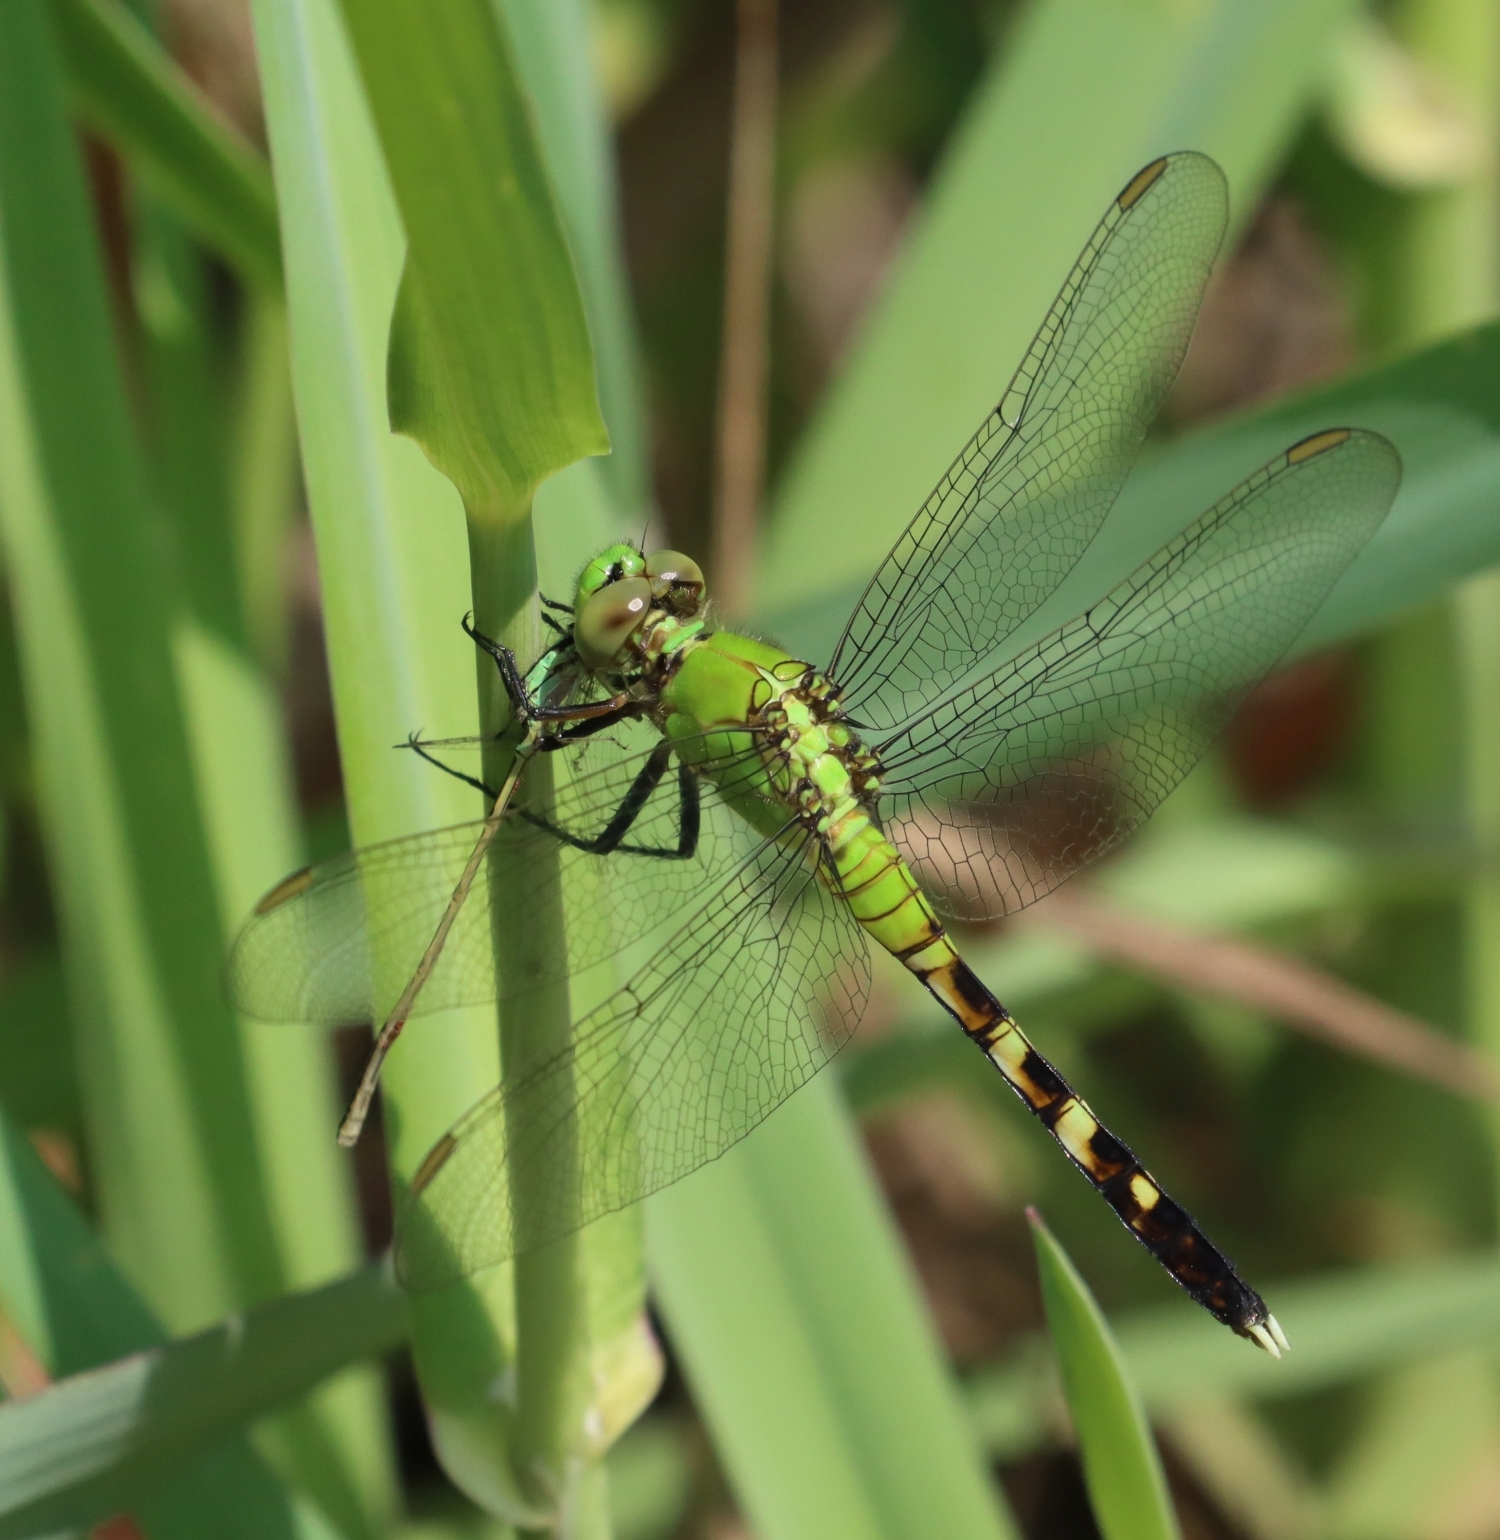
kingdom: Animalia
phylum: Arthropoda
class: Insecta
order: Odonata
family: Libellulidae
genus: Erythemis
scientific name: Erythemis simplicicollis
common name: Eastern pondhawk
